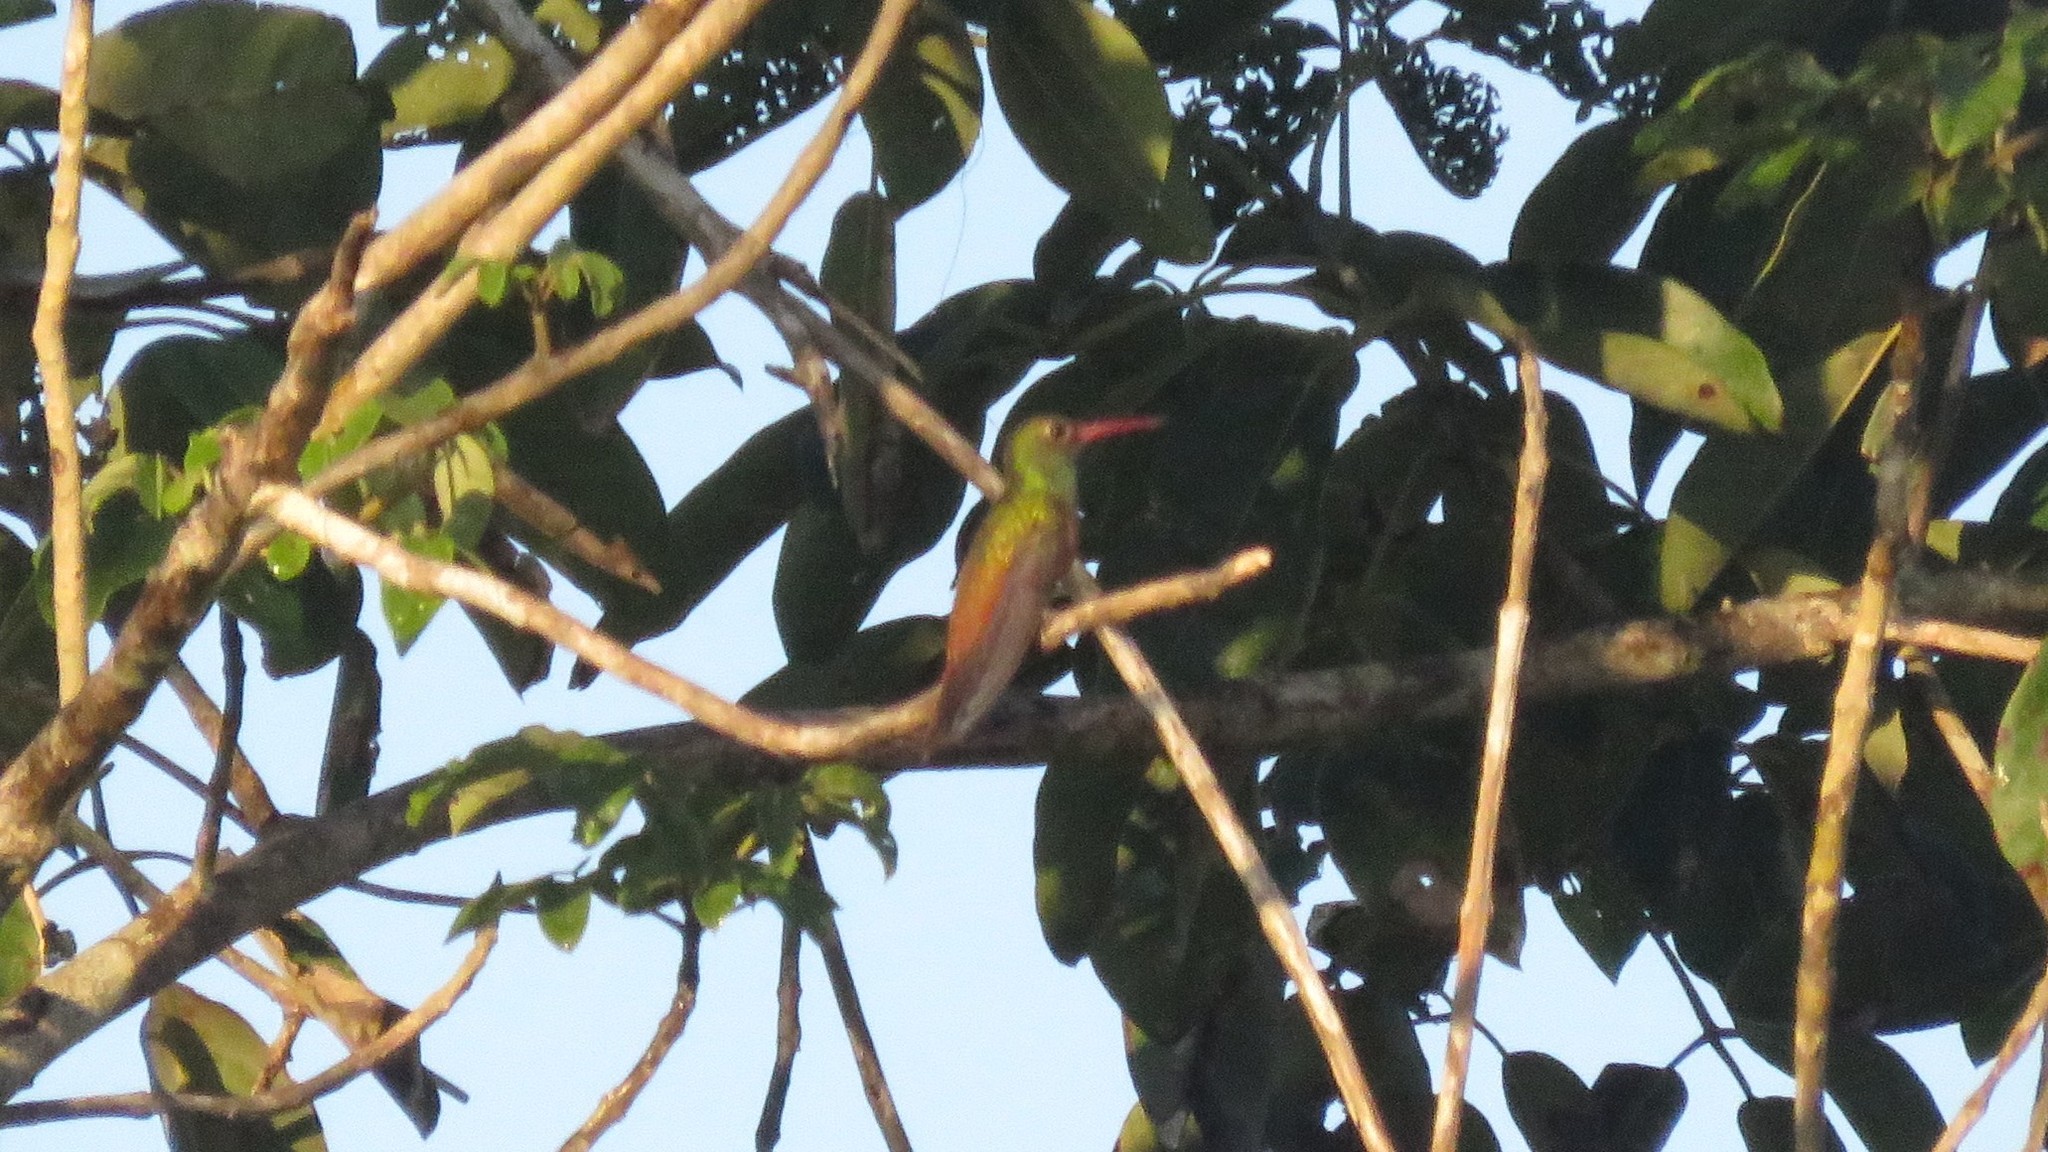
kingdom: Animalia
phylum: Chordata
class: Aves
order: Apodiformes
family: Trochilidae
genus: Amazilia
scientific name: Amazilia yucatanensis
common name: Buff-bellied hummingbird
